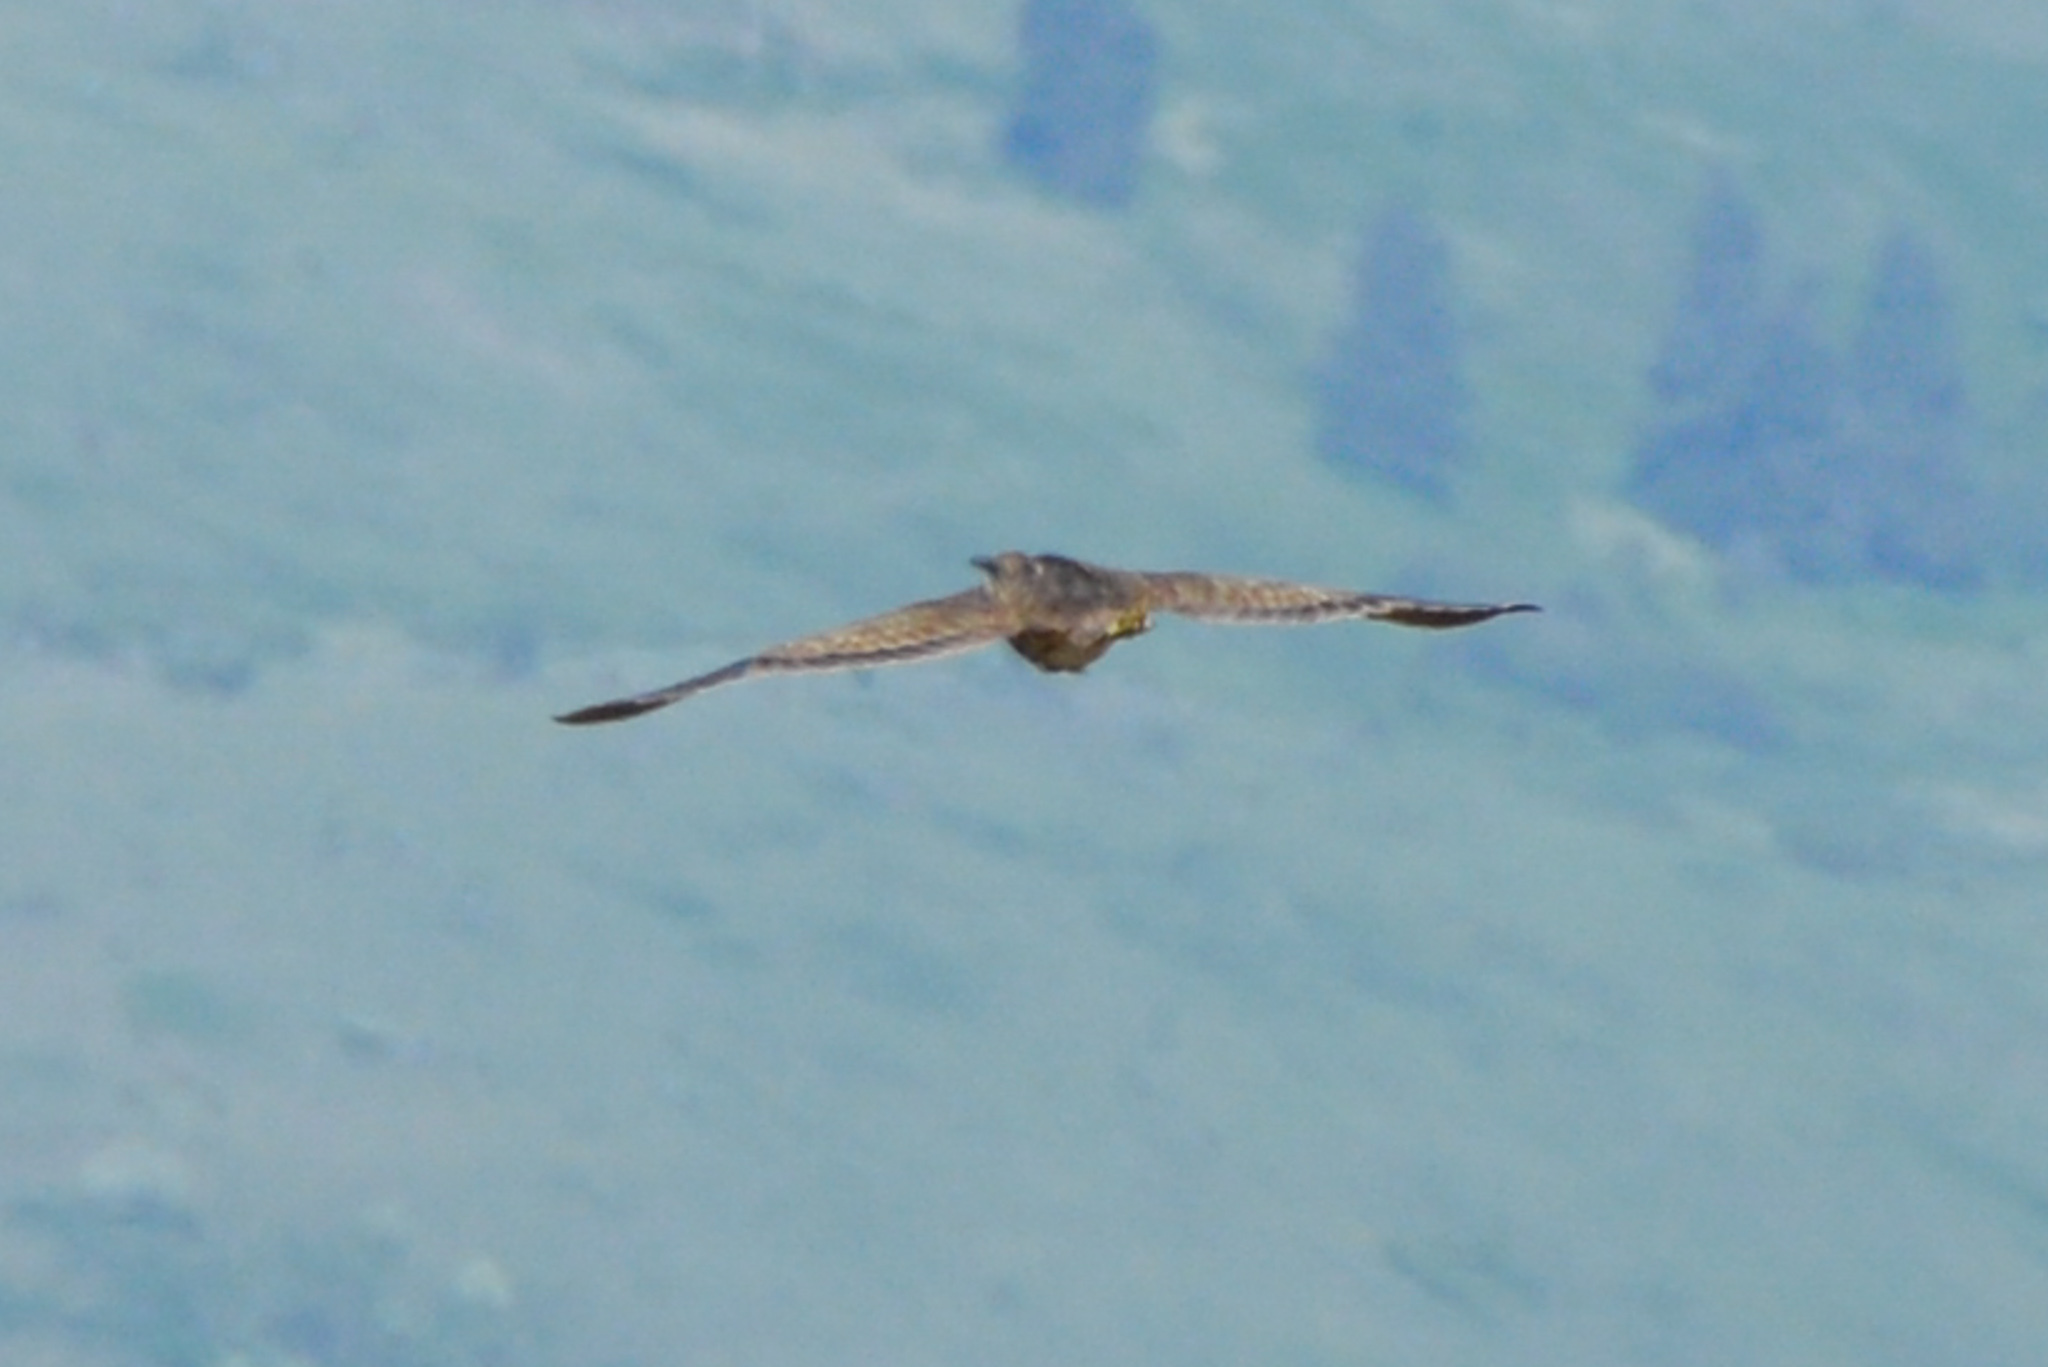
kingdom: Animalia
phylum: Chordata
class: Aves
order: Pelecaniformes
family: Ardeidae
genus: Botaurus
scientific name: Botaurus lentiginosus
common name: American bittern
